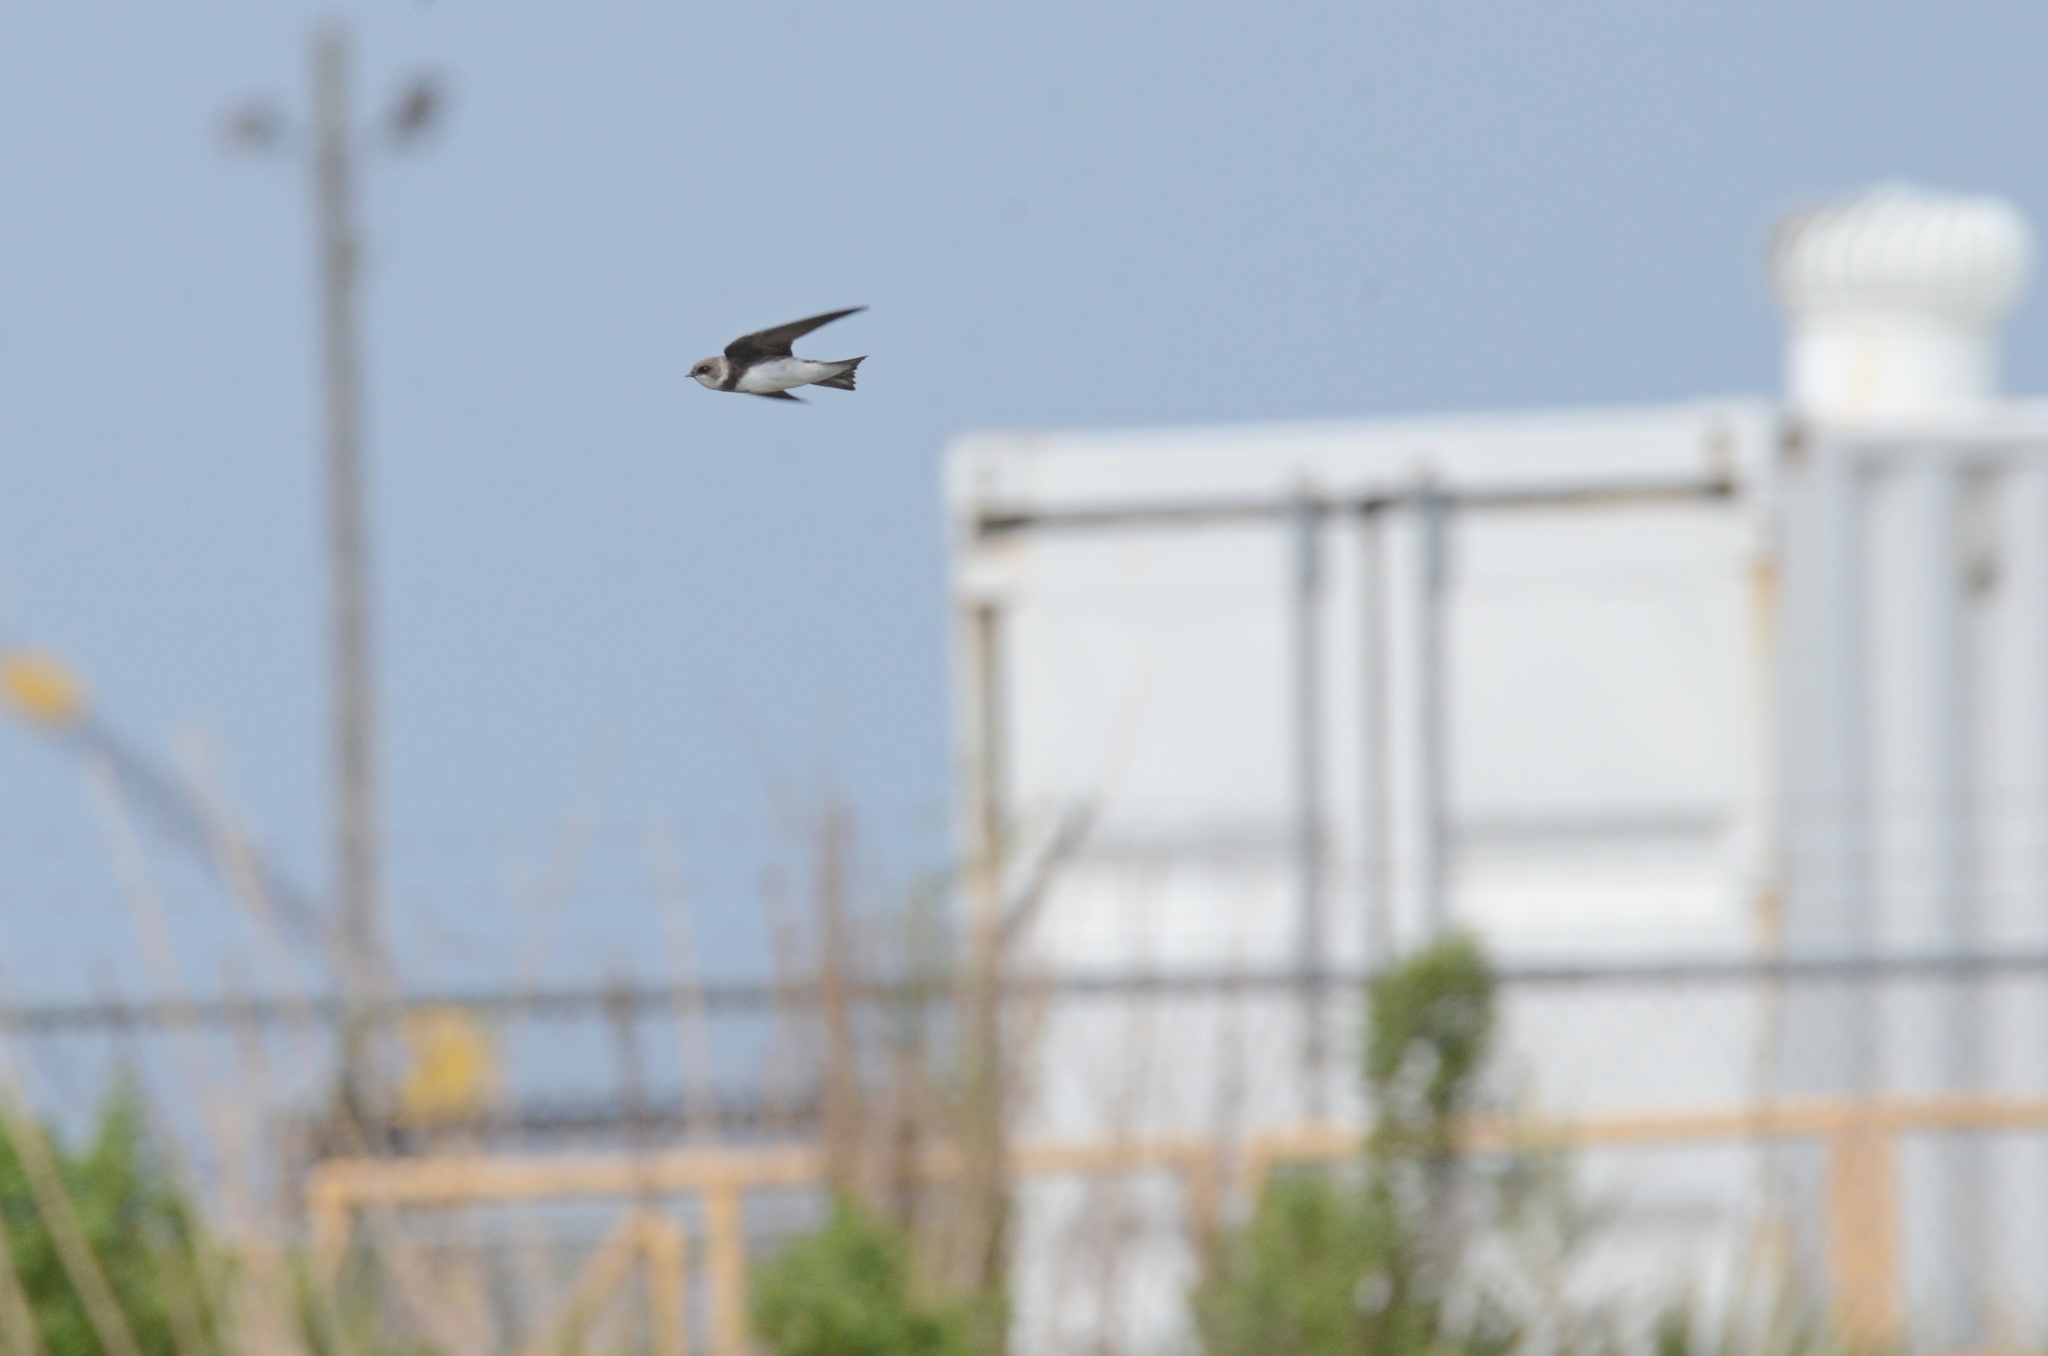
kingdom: Animalia
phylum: Chordata
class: Aves
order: Passeriformes
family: Hirundinidae
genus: Riparia
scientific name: Riparia riparia
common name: Sand martin
